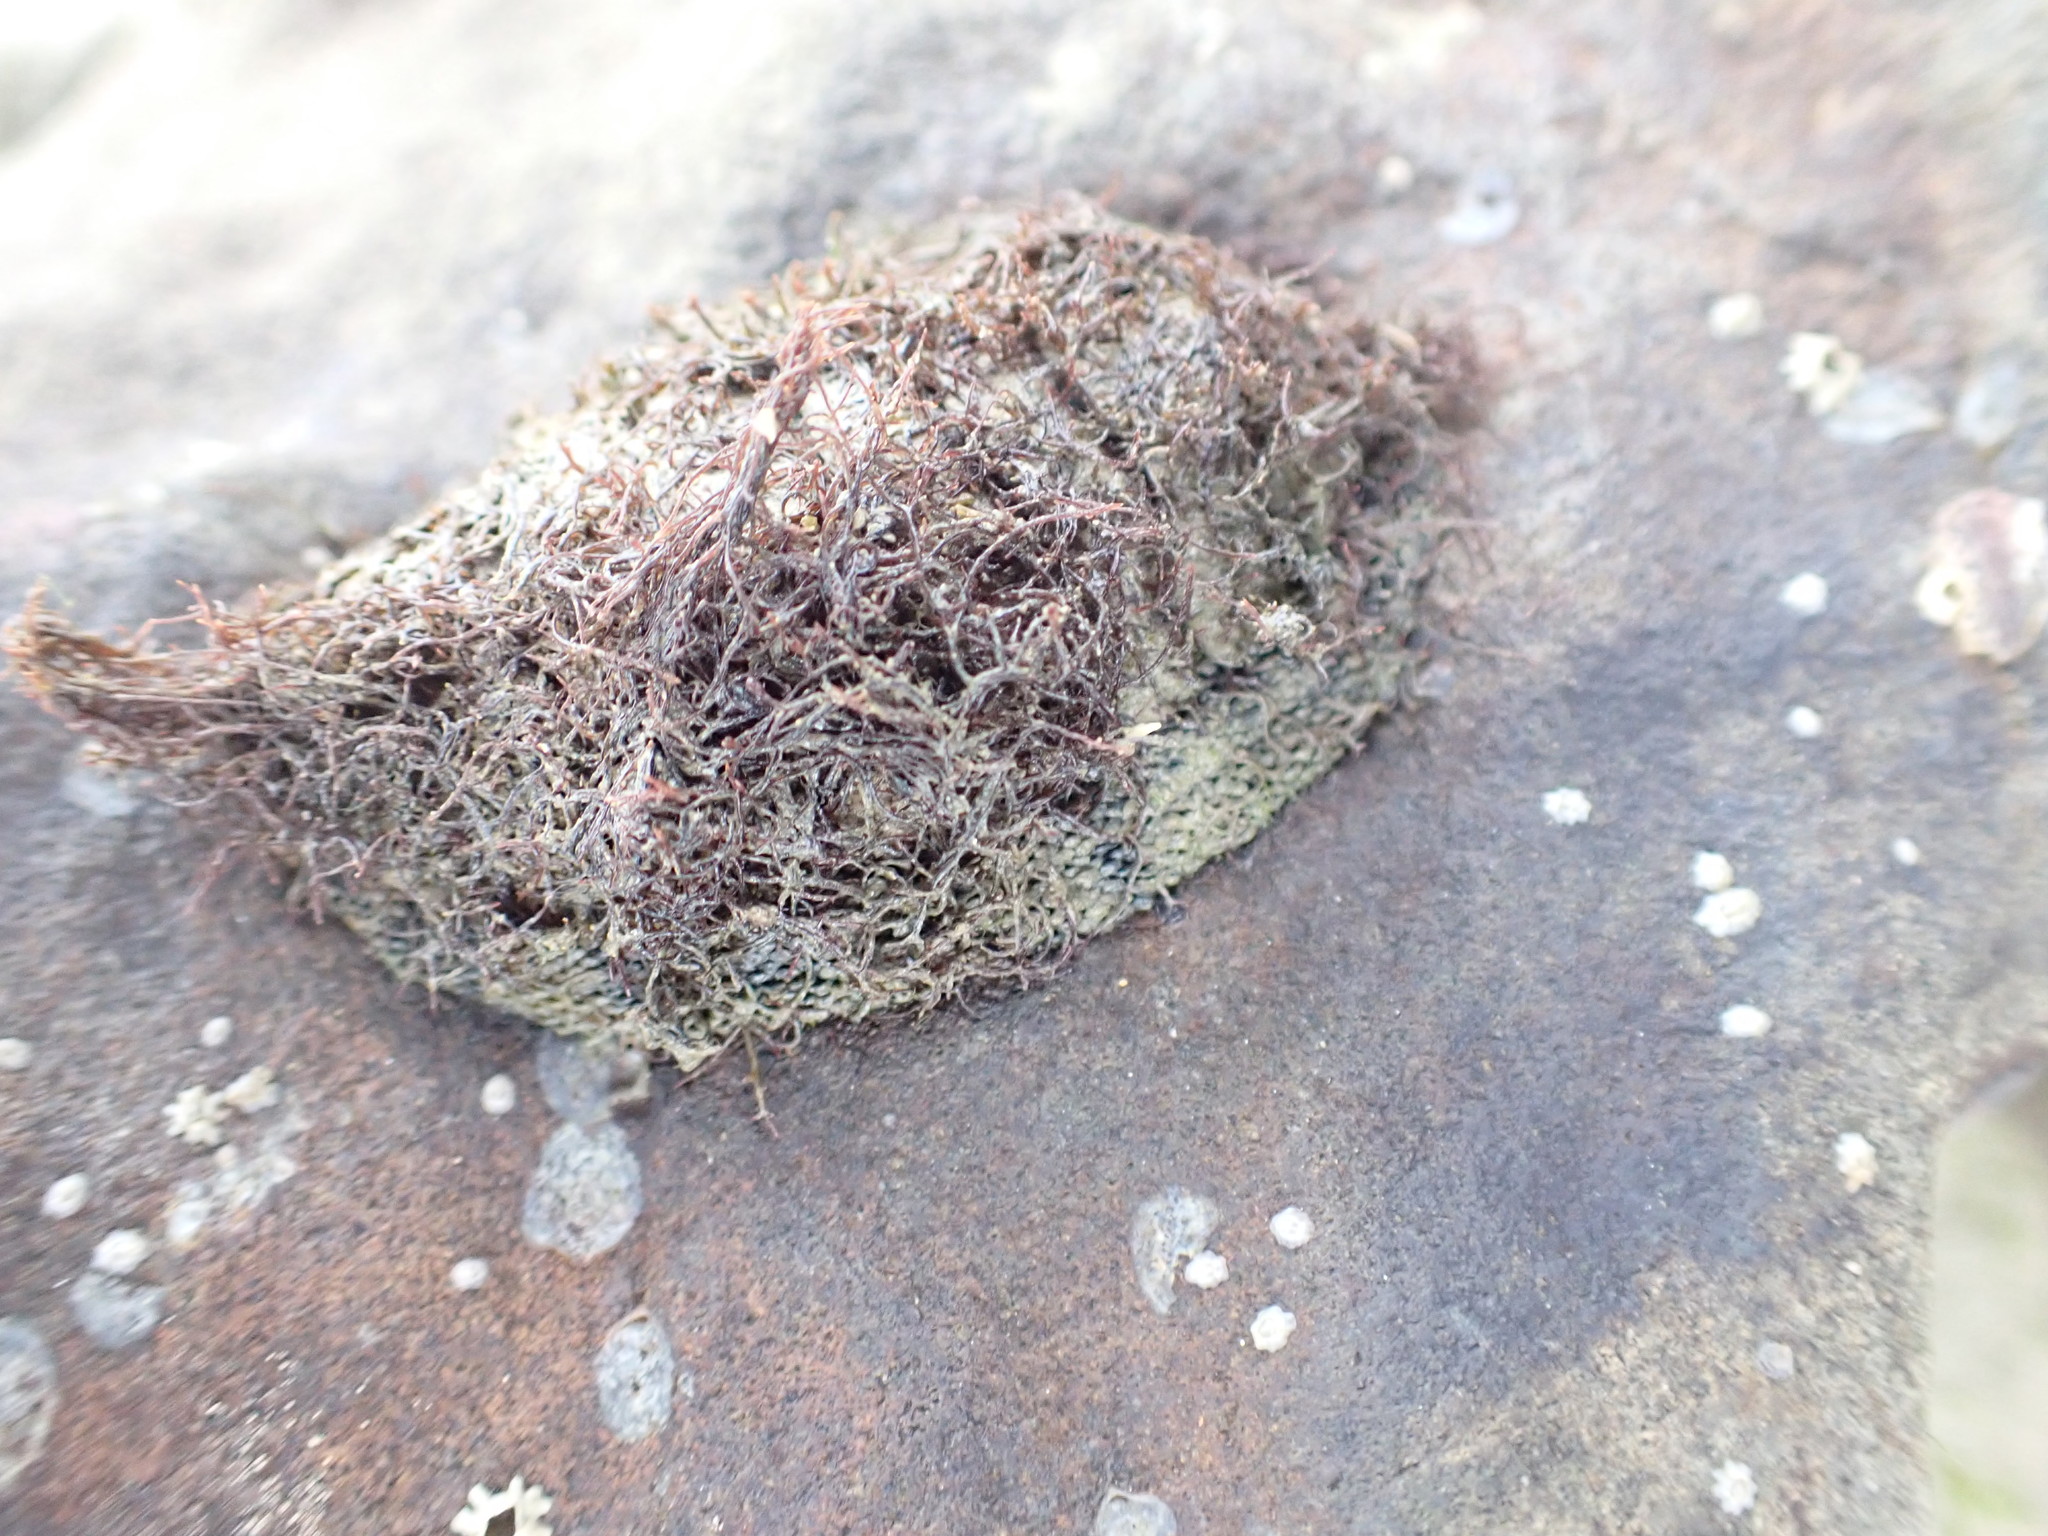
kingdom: Animalia
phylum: Mollusca
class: Polyplacophora
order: Chitonida
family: Chitonidae
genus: Sypharochiton
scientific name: Sypharochiton pelliserpentis
